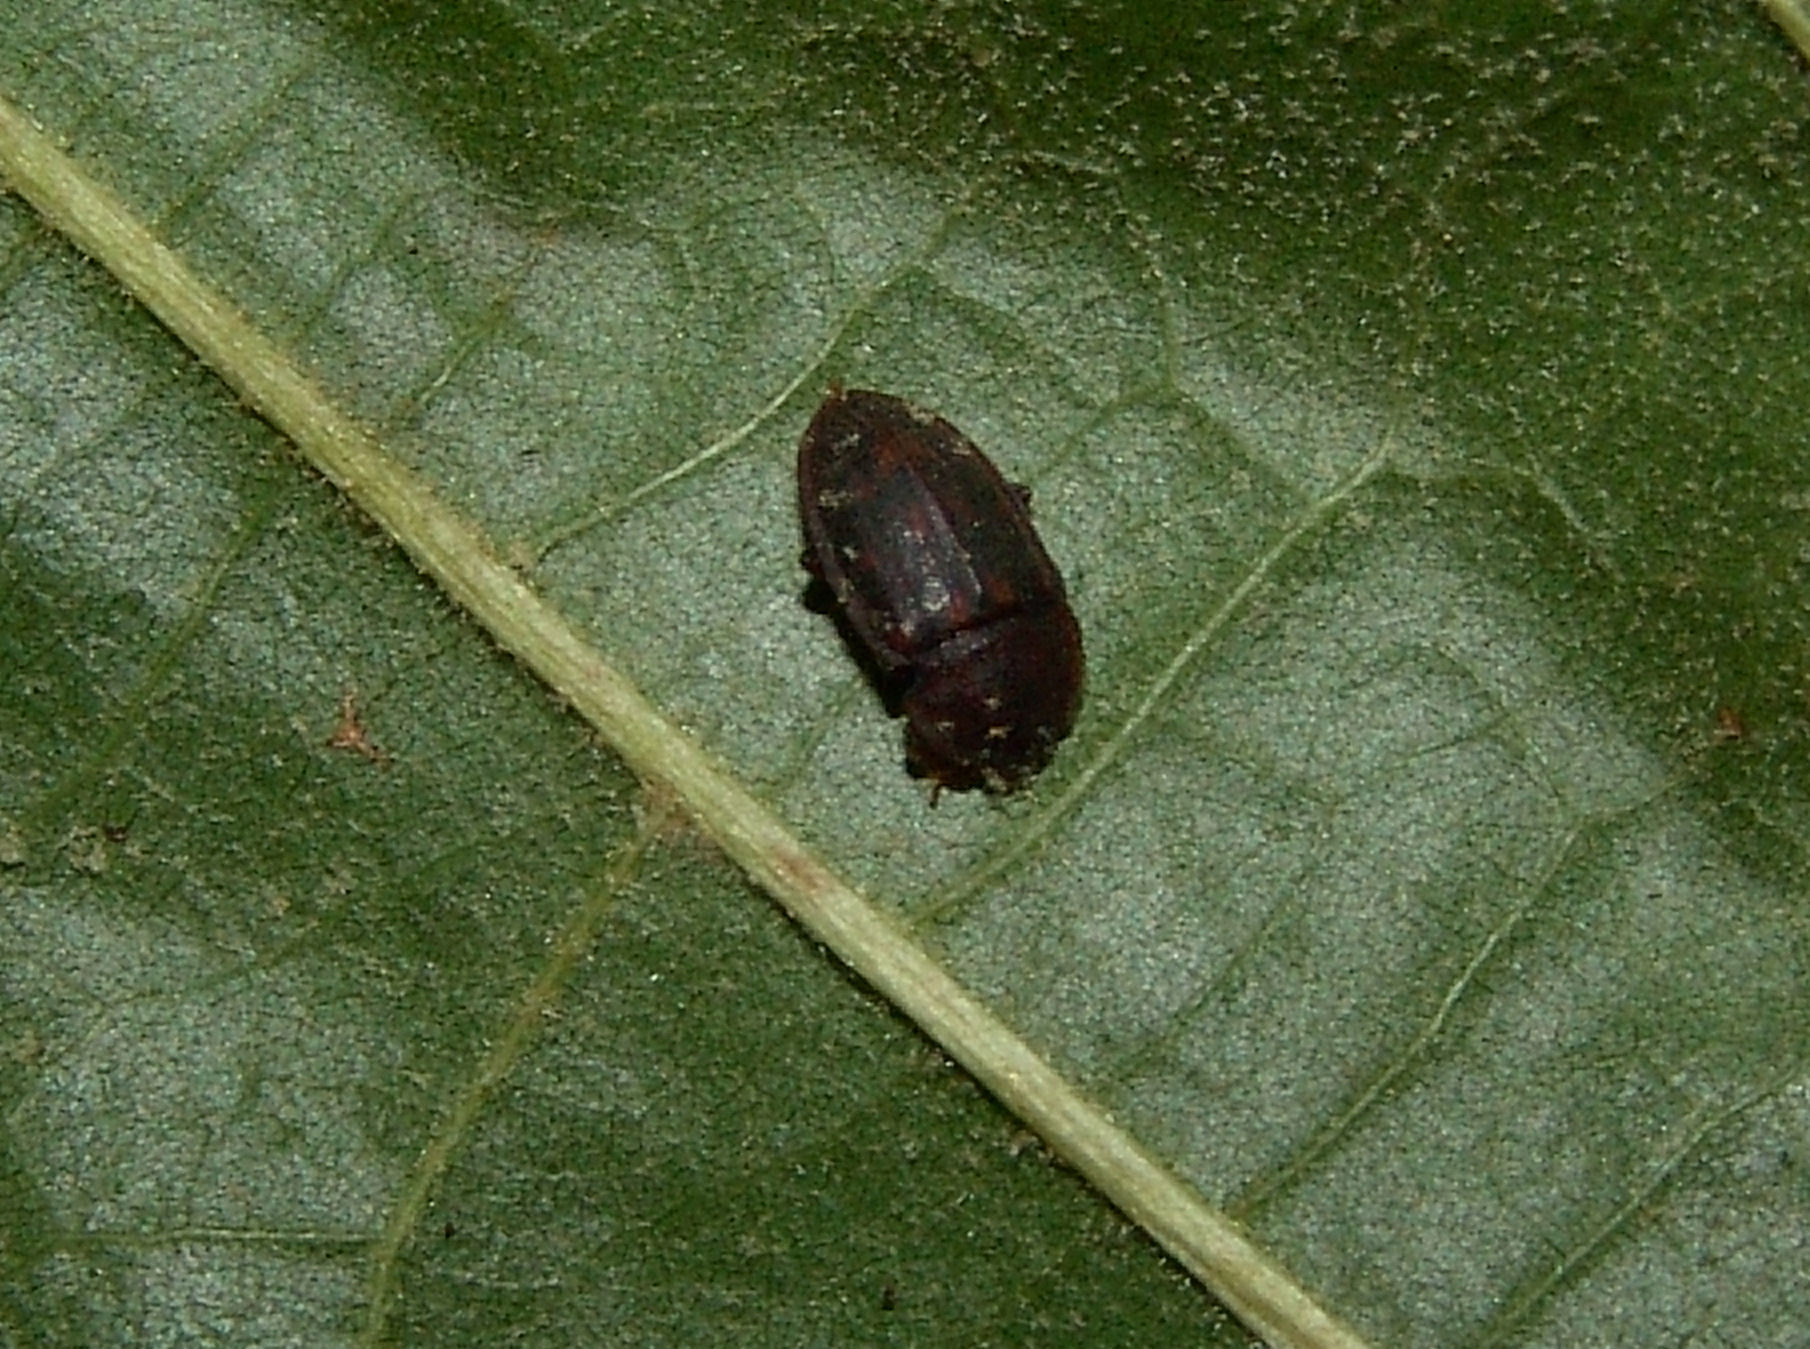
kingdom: Animalia
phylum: Arthropoda
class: Insecta
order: Coleoptera
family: Nitidulidae
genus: Phenolia
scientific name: Phenolia grossa
